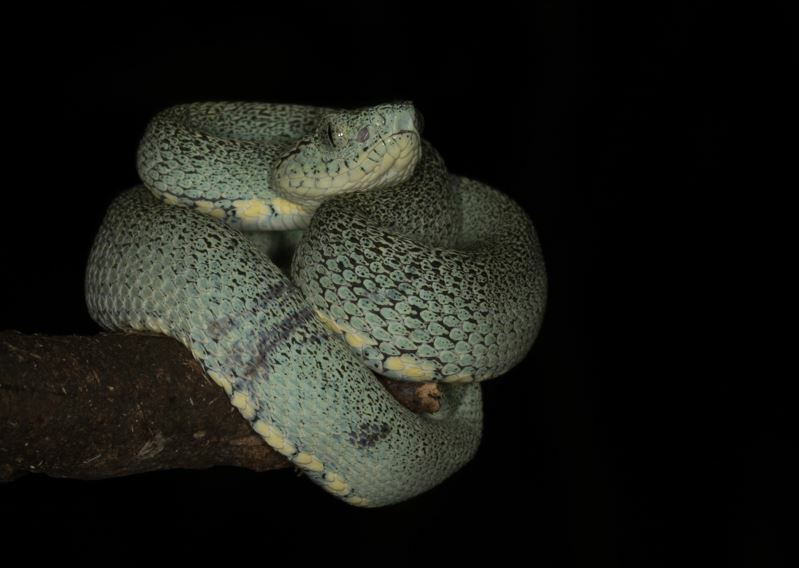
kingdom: Animalia
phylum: Chordata
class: Squamata
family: Viperidae
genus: Bothrops
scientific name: Bothrops bilineatus
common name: Green jararaca
